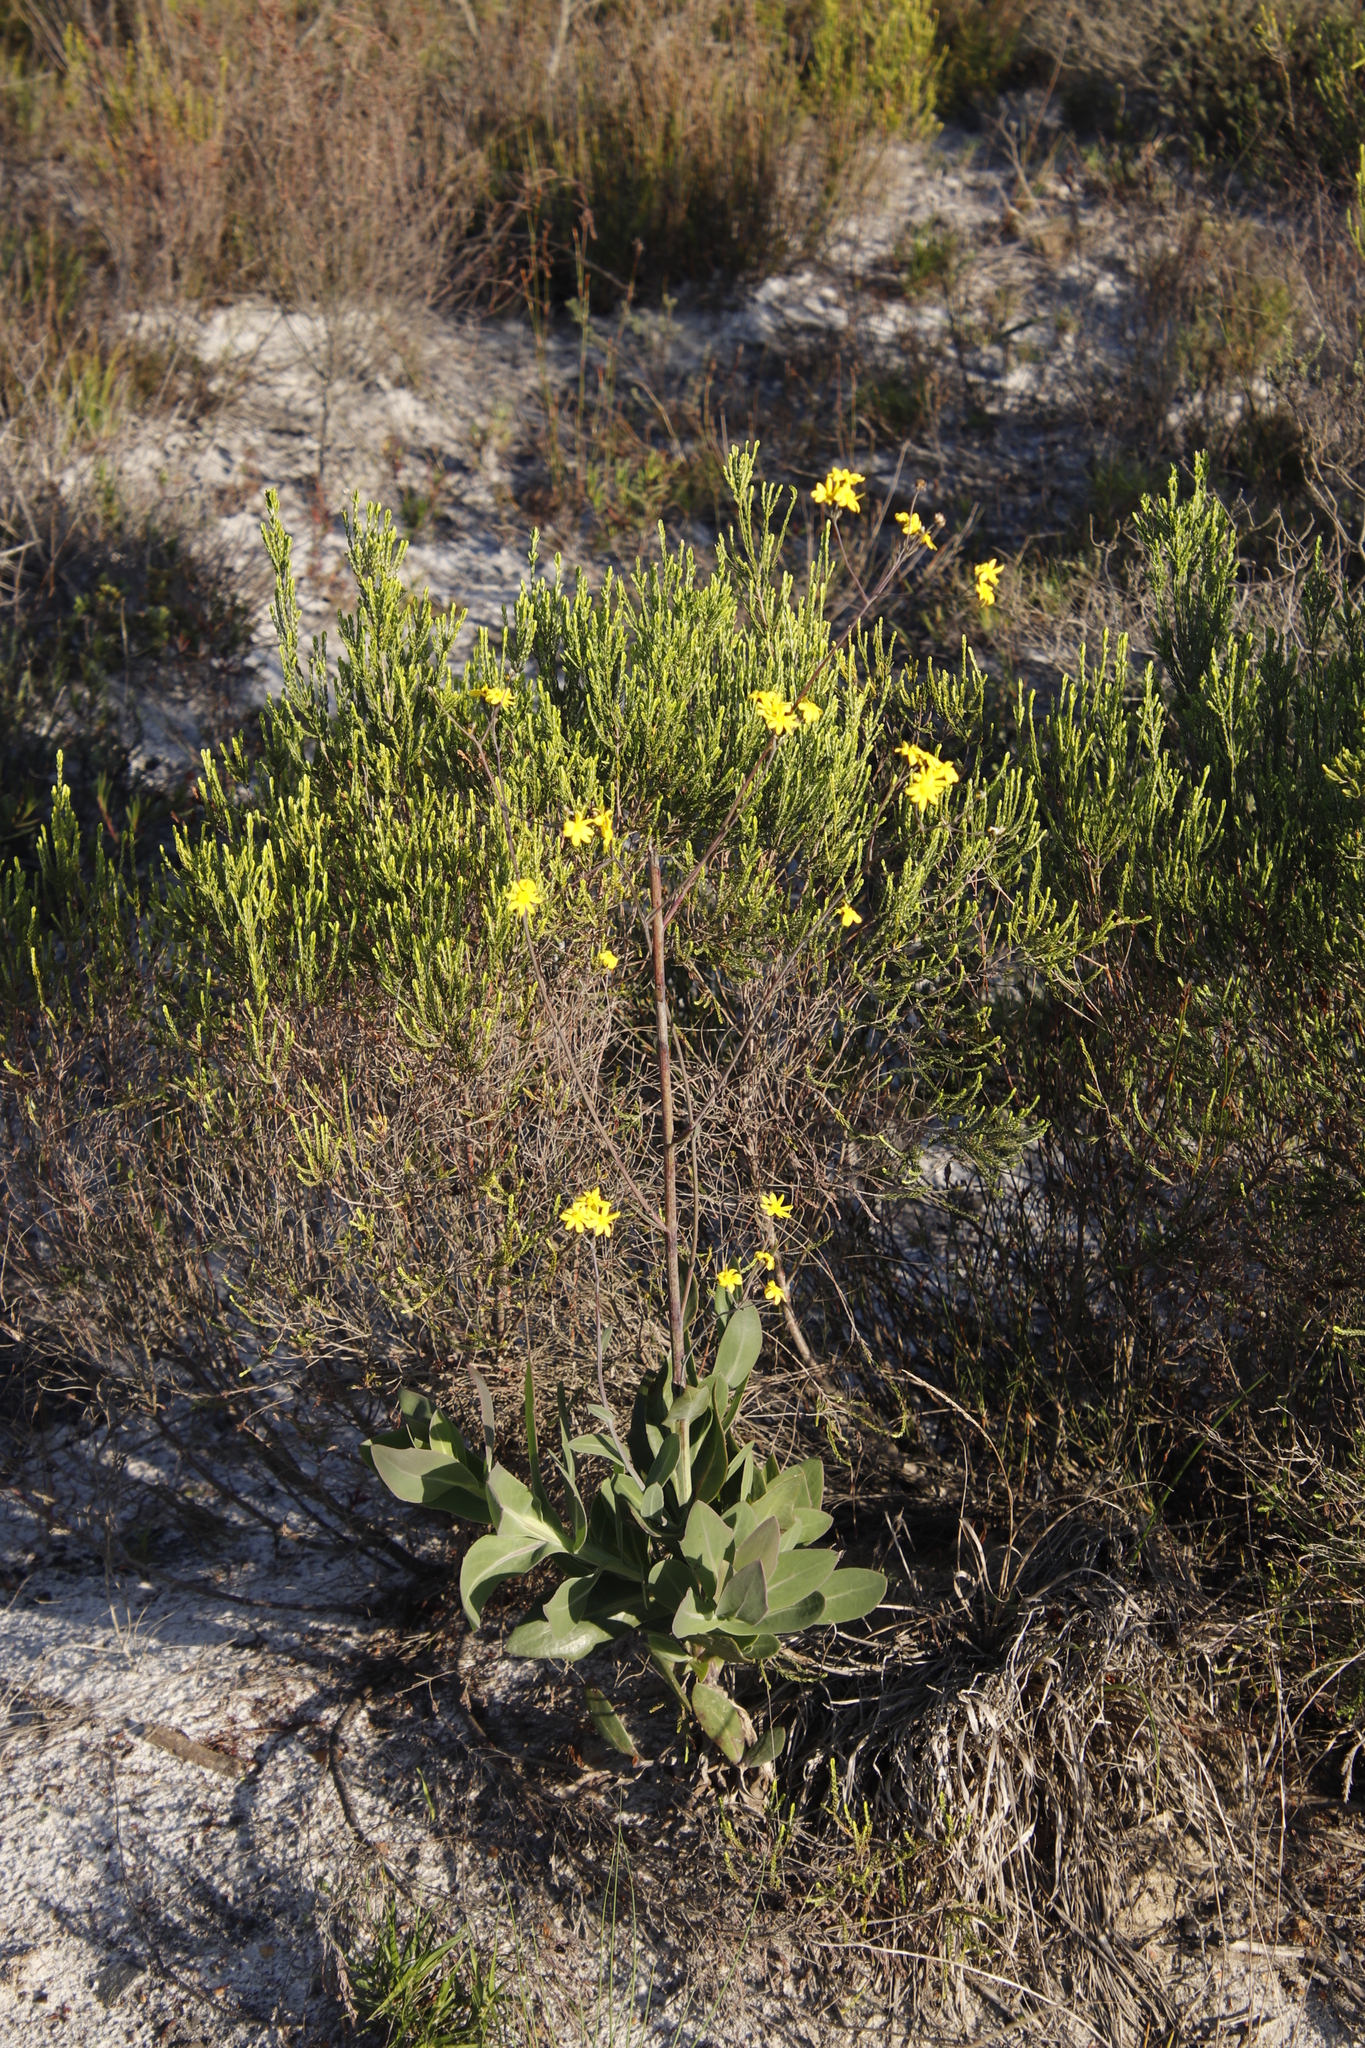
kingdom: Plantae
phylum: Tracheophyta
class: Magnoliopsida
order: Asterales
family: Asteraceae
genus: Othonna
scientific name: Othonna quinquedentata
